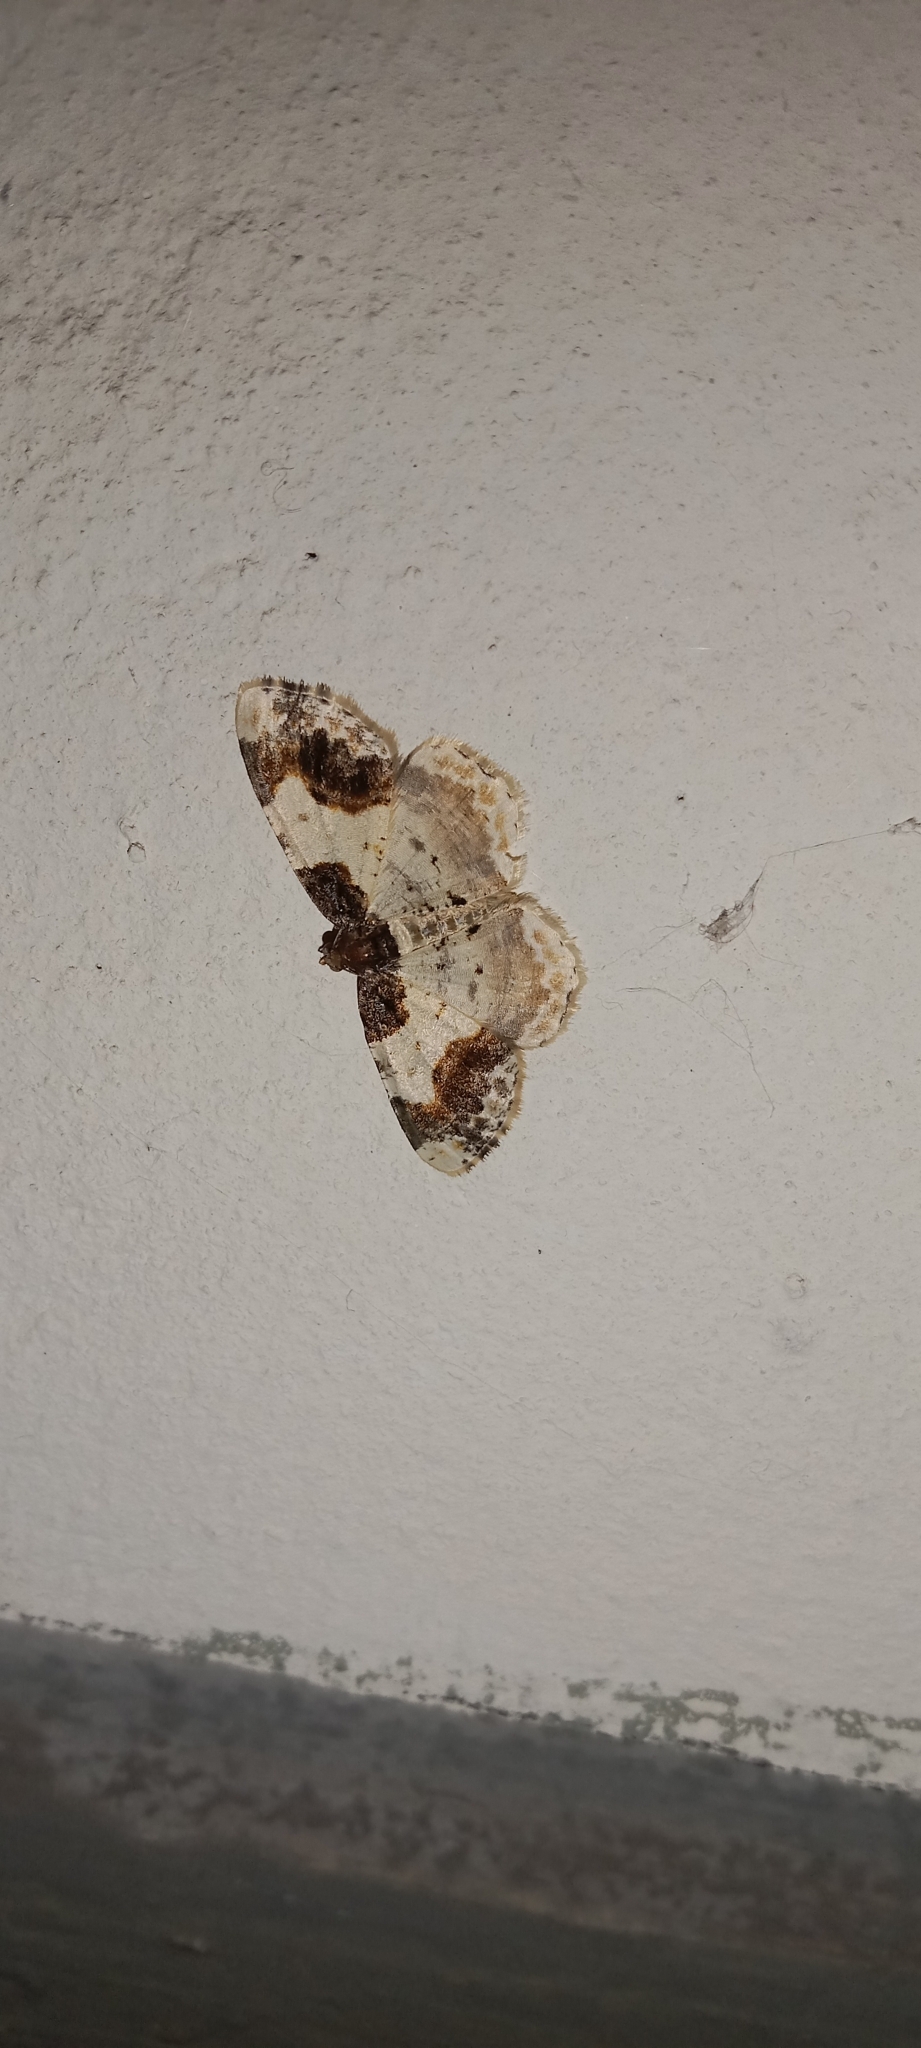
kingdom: Animalia
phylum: Arthropoda
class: Insecta
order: Lepidoptera
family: Geometridae
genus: Ligdia
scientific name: Ligdia adustata
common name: Scorched carpet
